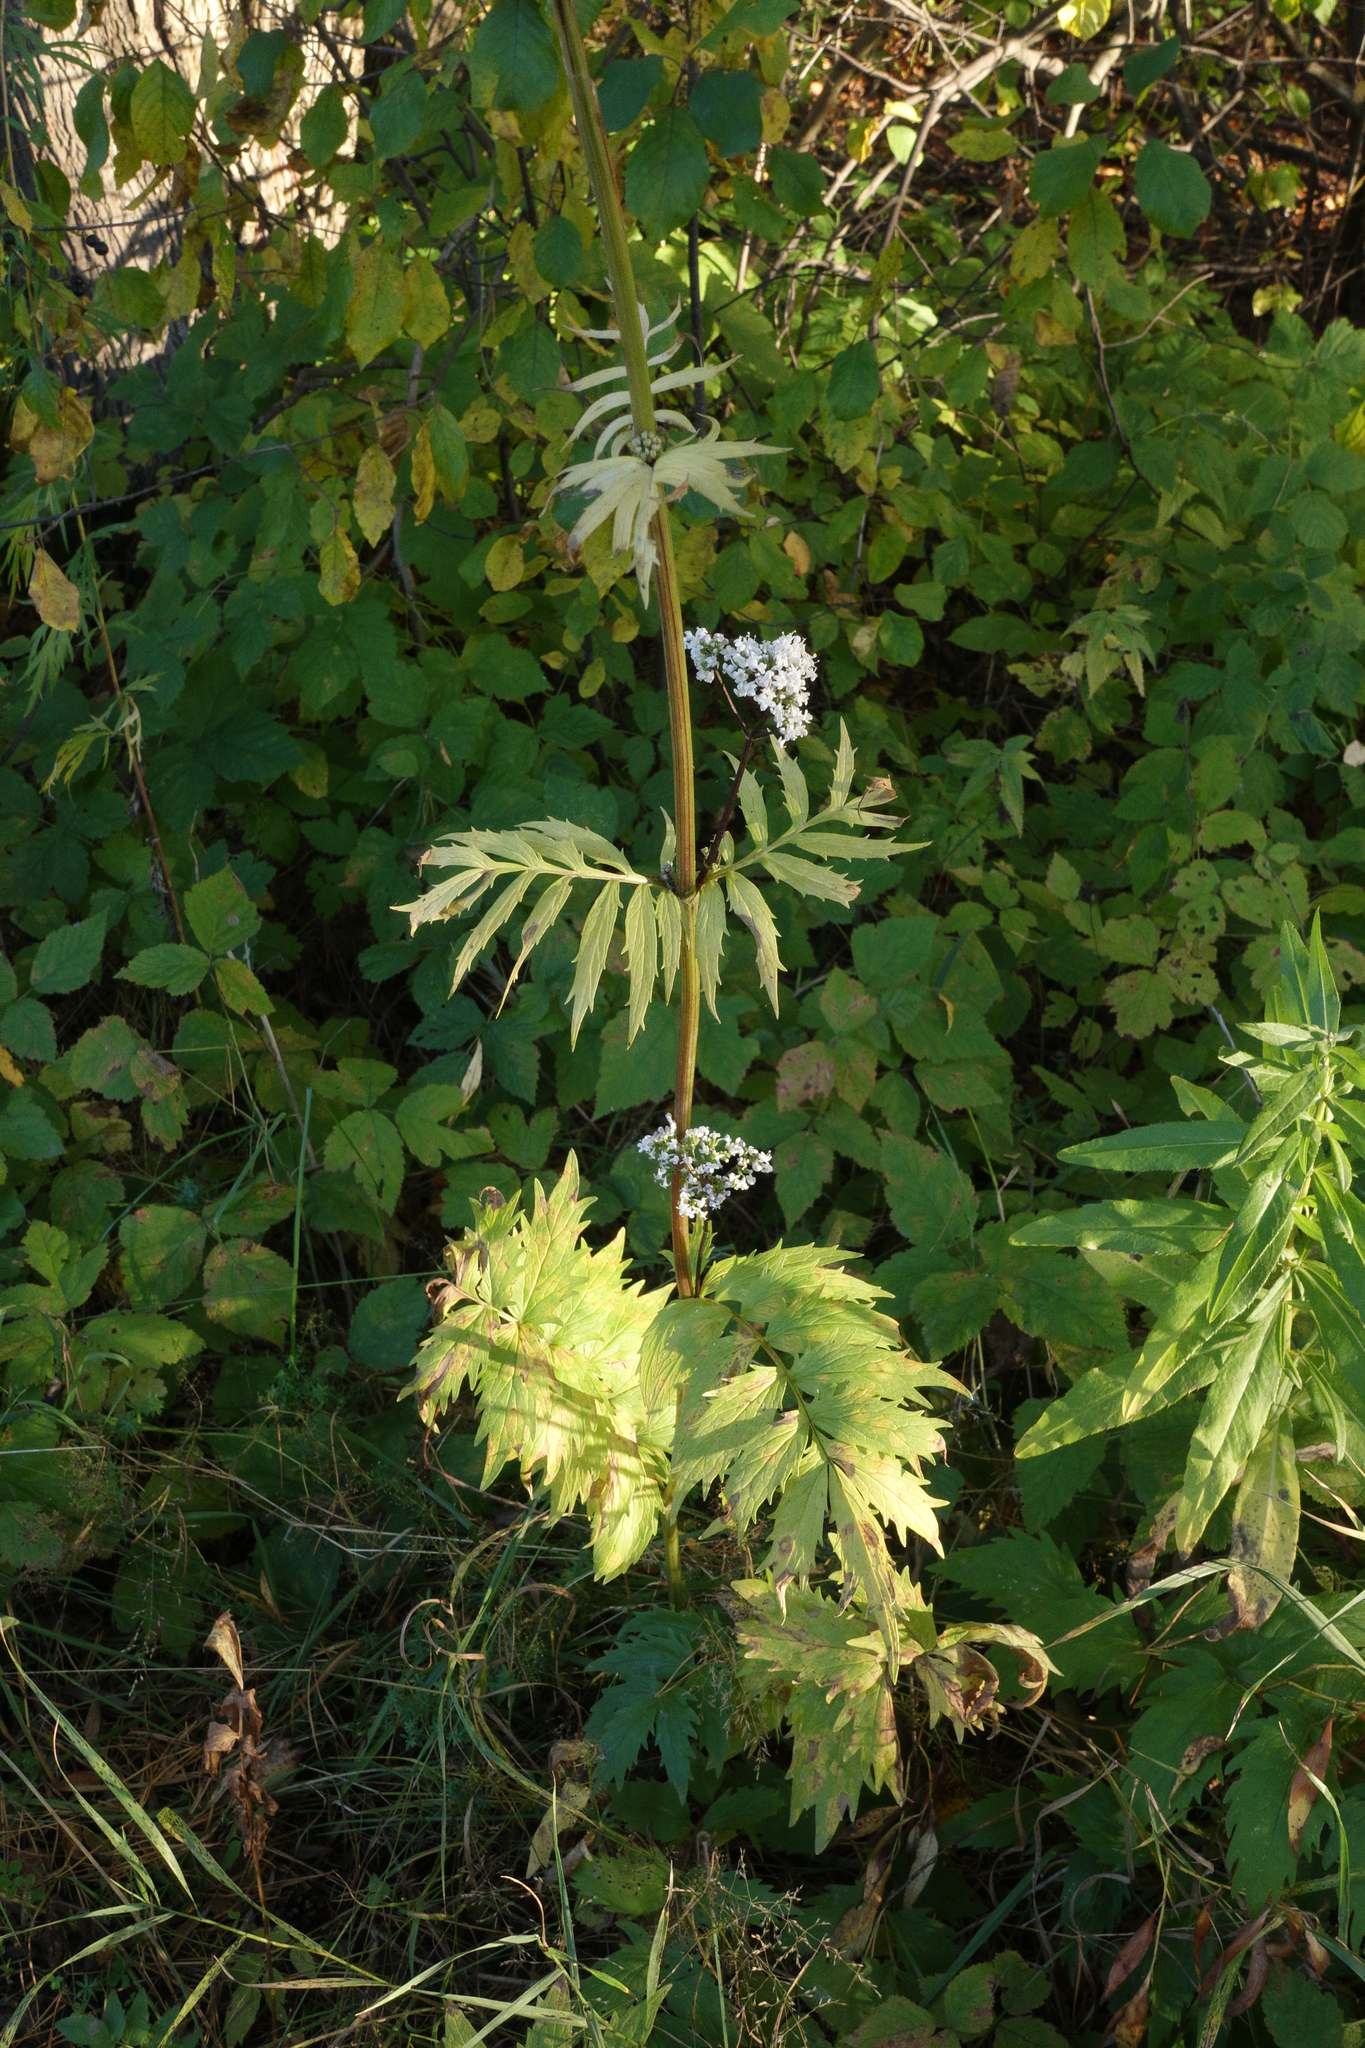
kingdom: Plantae
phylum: Tracheophyta
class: Magnoliopsida
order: Dipsacales
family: Caprifoliaceae
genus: Valeriana
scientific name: Valeriana officinalis
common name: Common valerian
